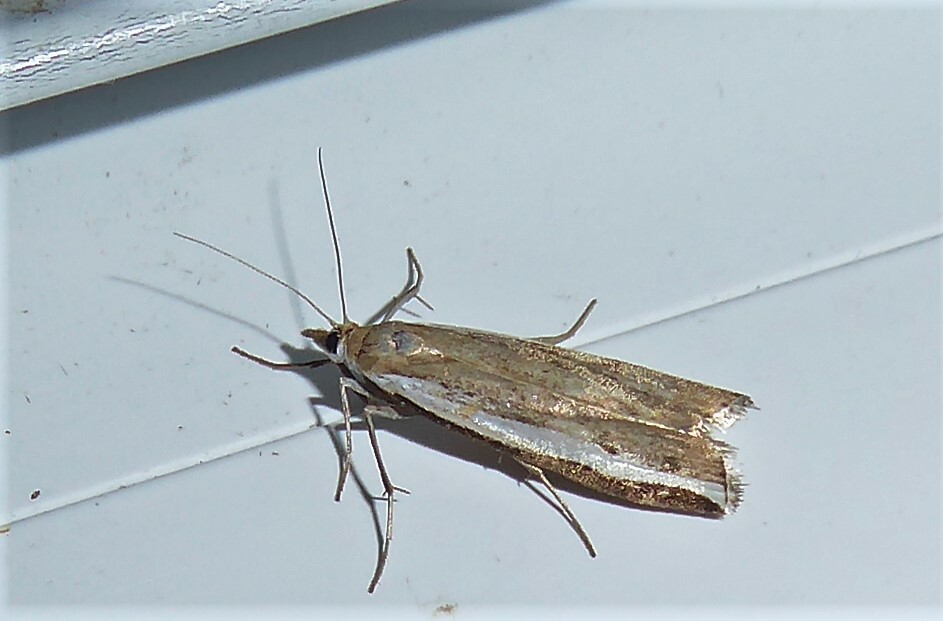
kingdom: Animalia
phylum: Arthropoda
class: Insecta
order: Lepidoptera
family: Crambidae
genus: Orocrambus
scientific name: Orocrambus flexuosellus
